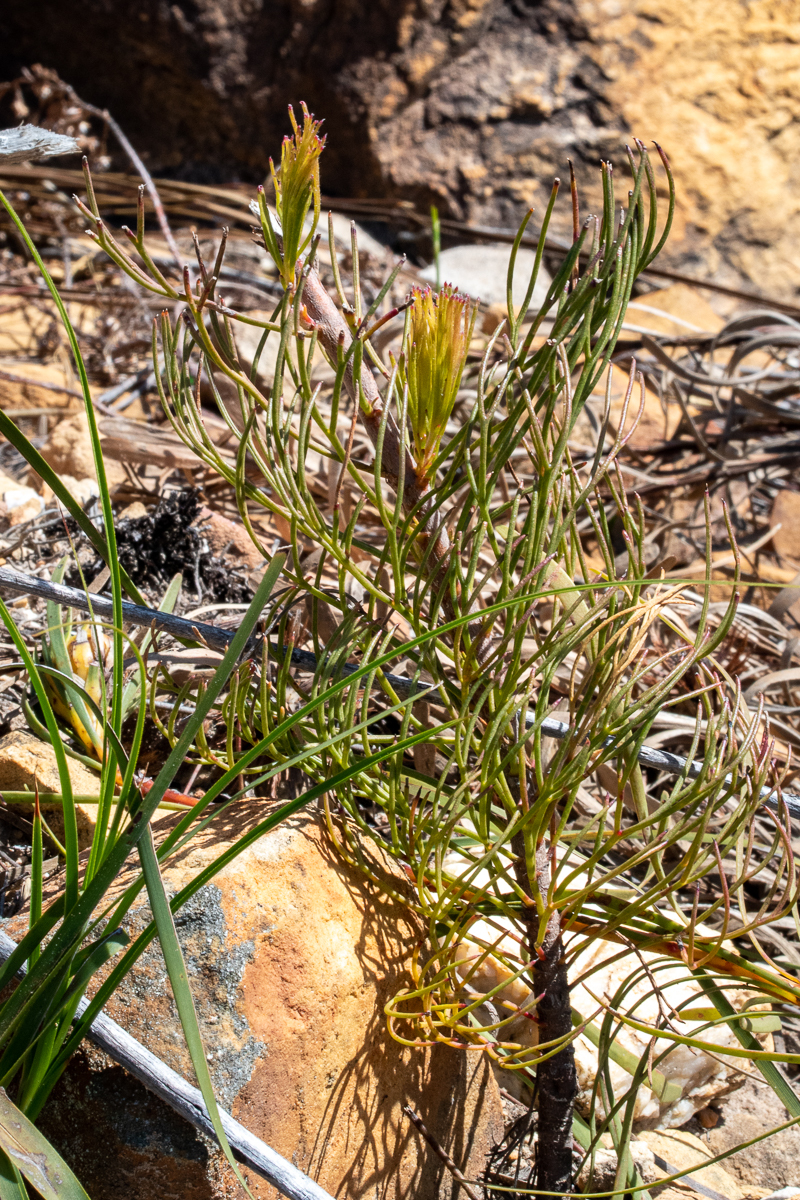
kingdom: Plantae
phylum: Tracheophyta
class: Magnoliopsida
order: Proteales
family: Proteaceae
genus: Serruria
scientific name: Serruria phylicoides
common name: Bearded spiderhead
